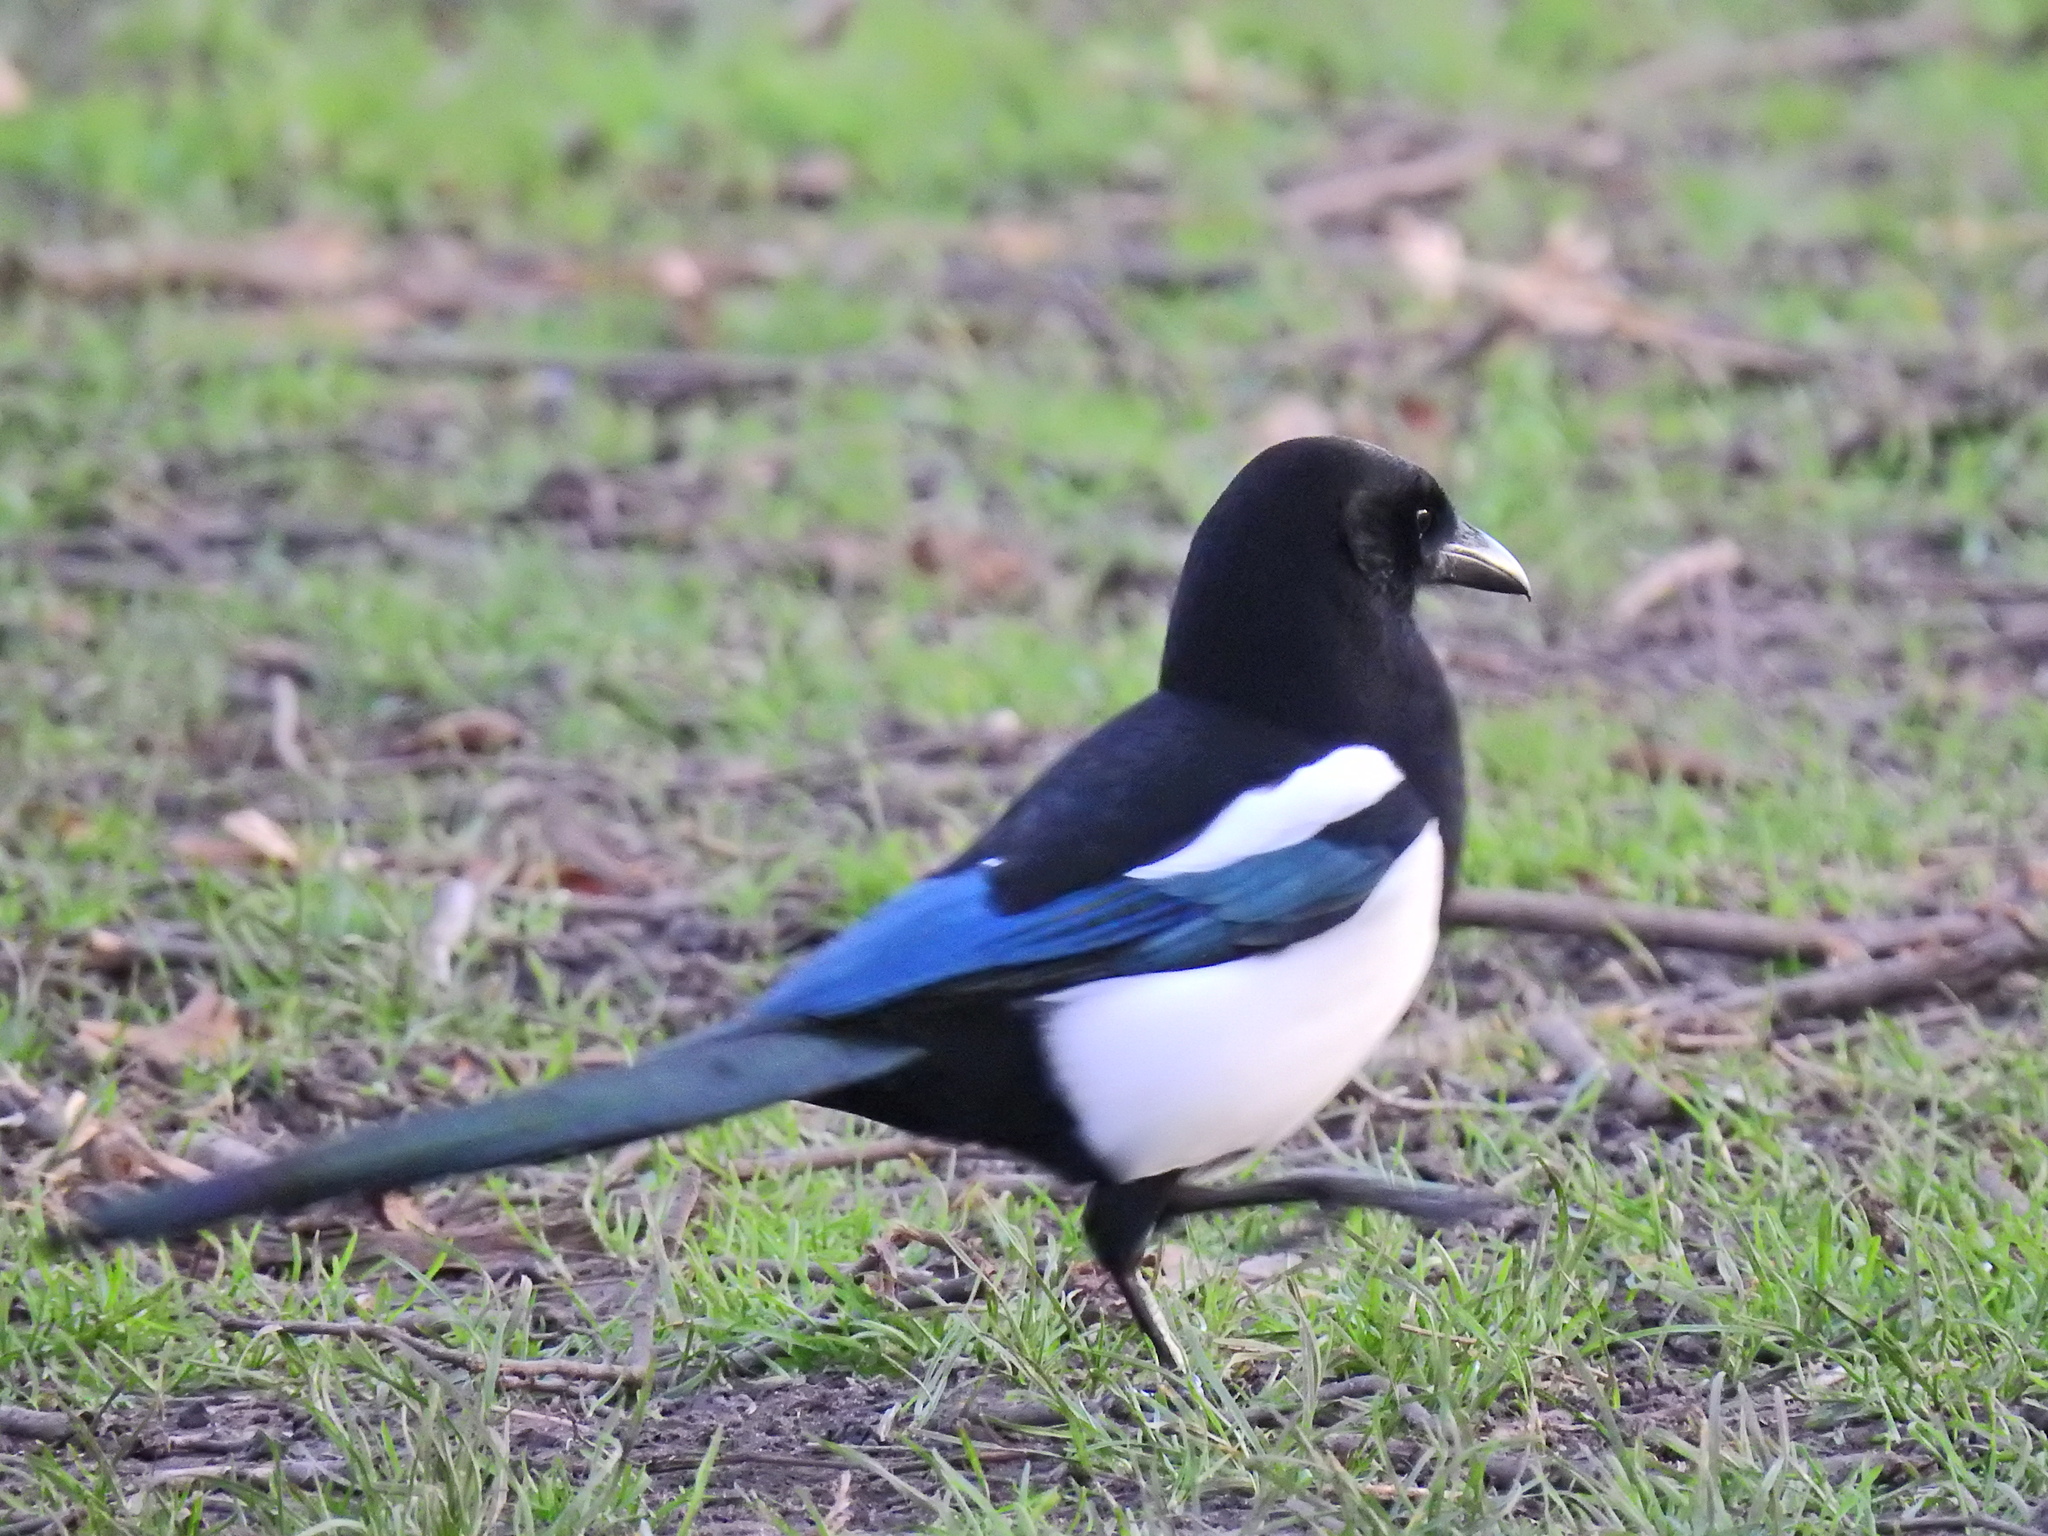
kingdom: Animalia
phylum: Chordata
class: Aves
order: Passeriformes
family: Corvidae
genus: Pica
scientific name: Pica pica
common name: Eurasian magpie
